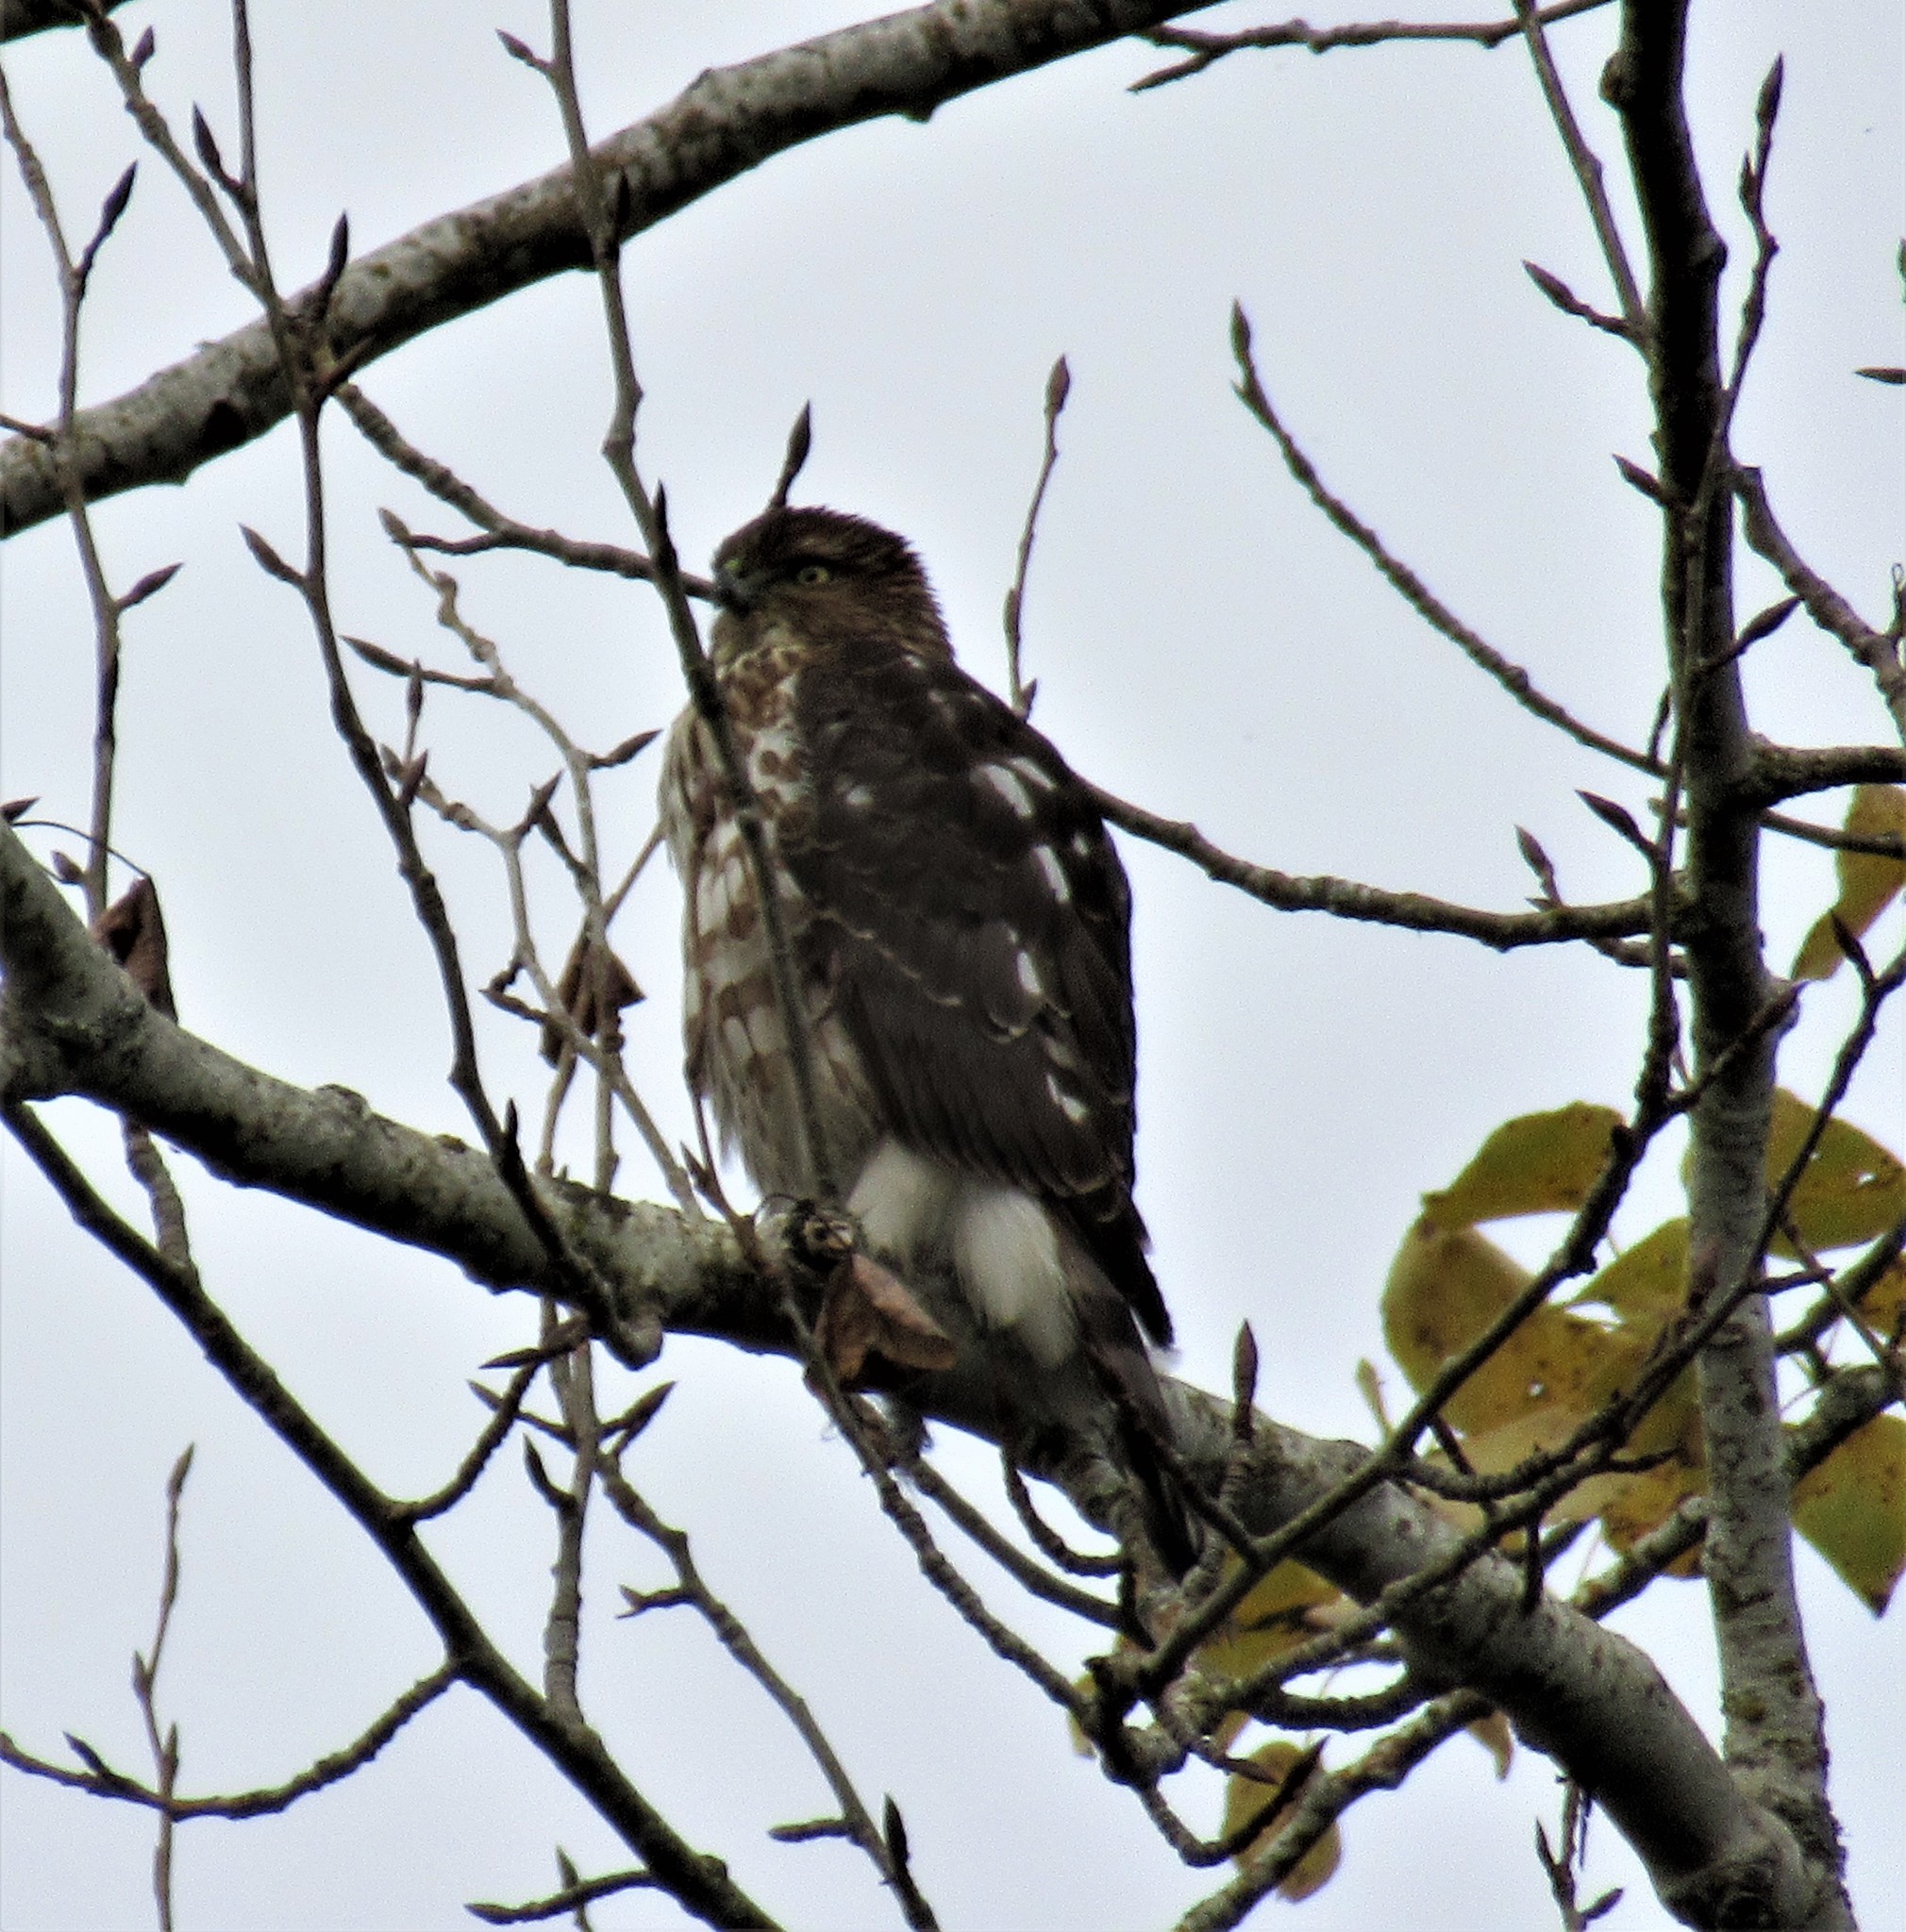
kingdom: Animalia
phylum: Chordata
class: Aves
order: Accipitriformes
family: Accipitridae
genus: Accipiter
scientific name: Accipiter cooperii
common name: Cooper's hawk
